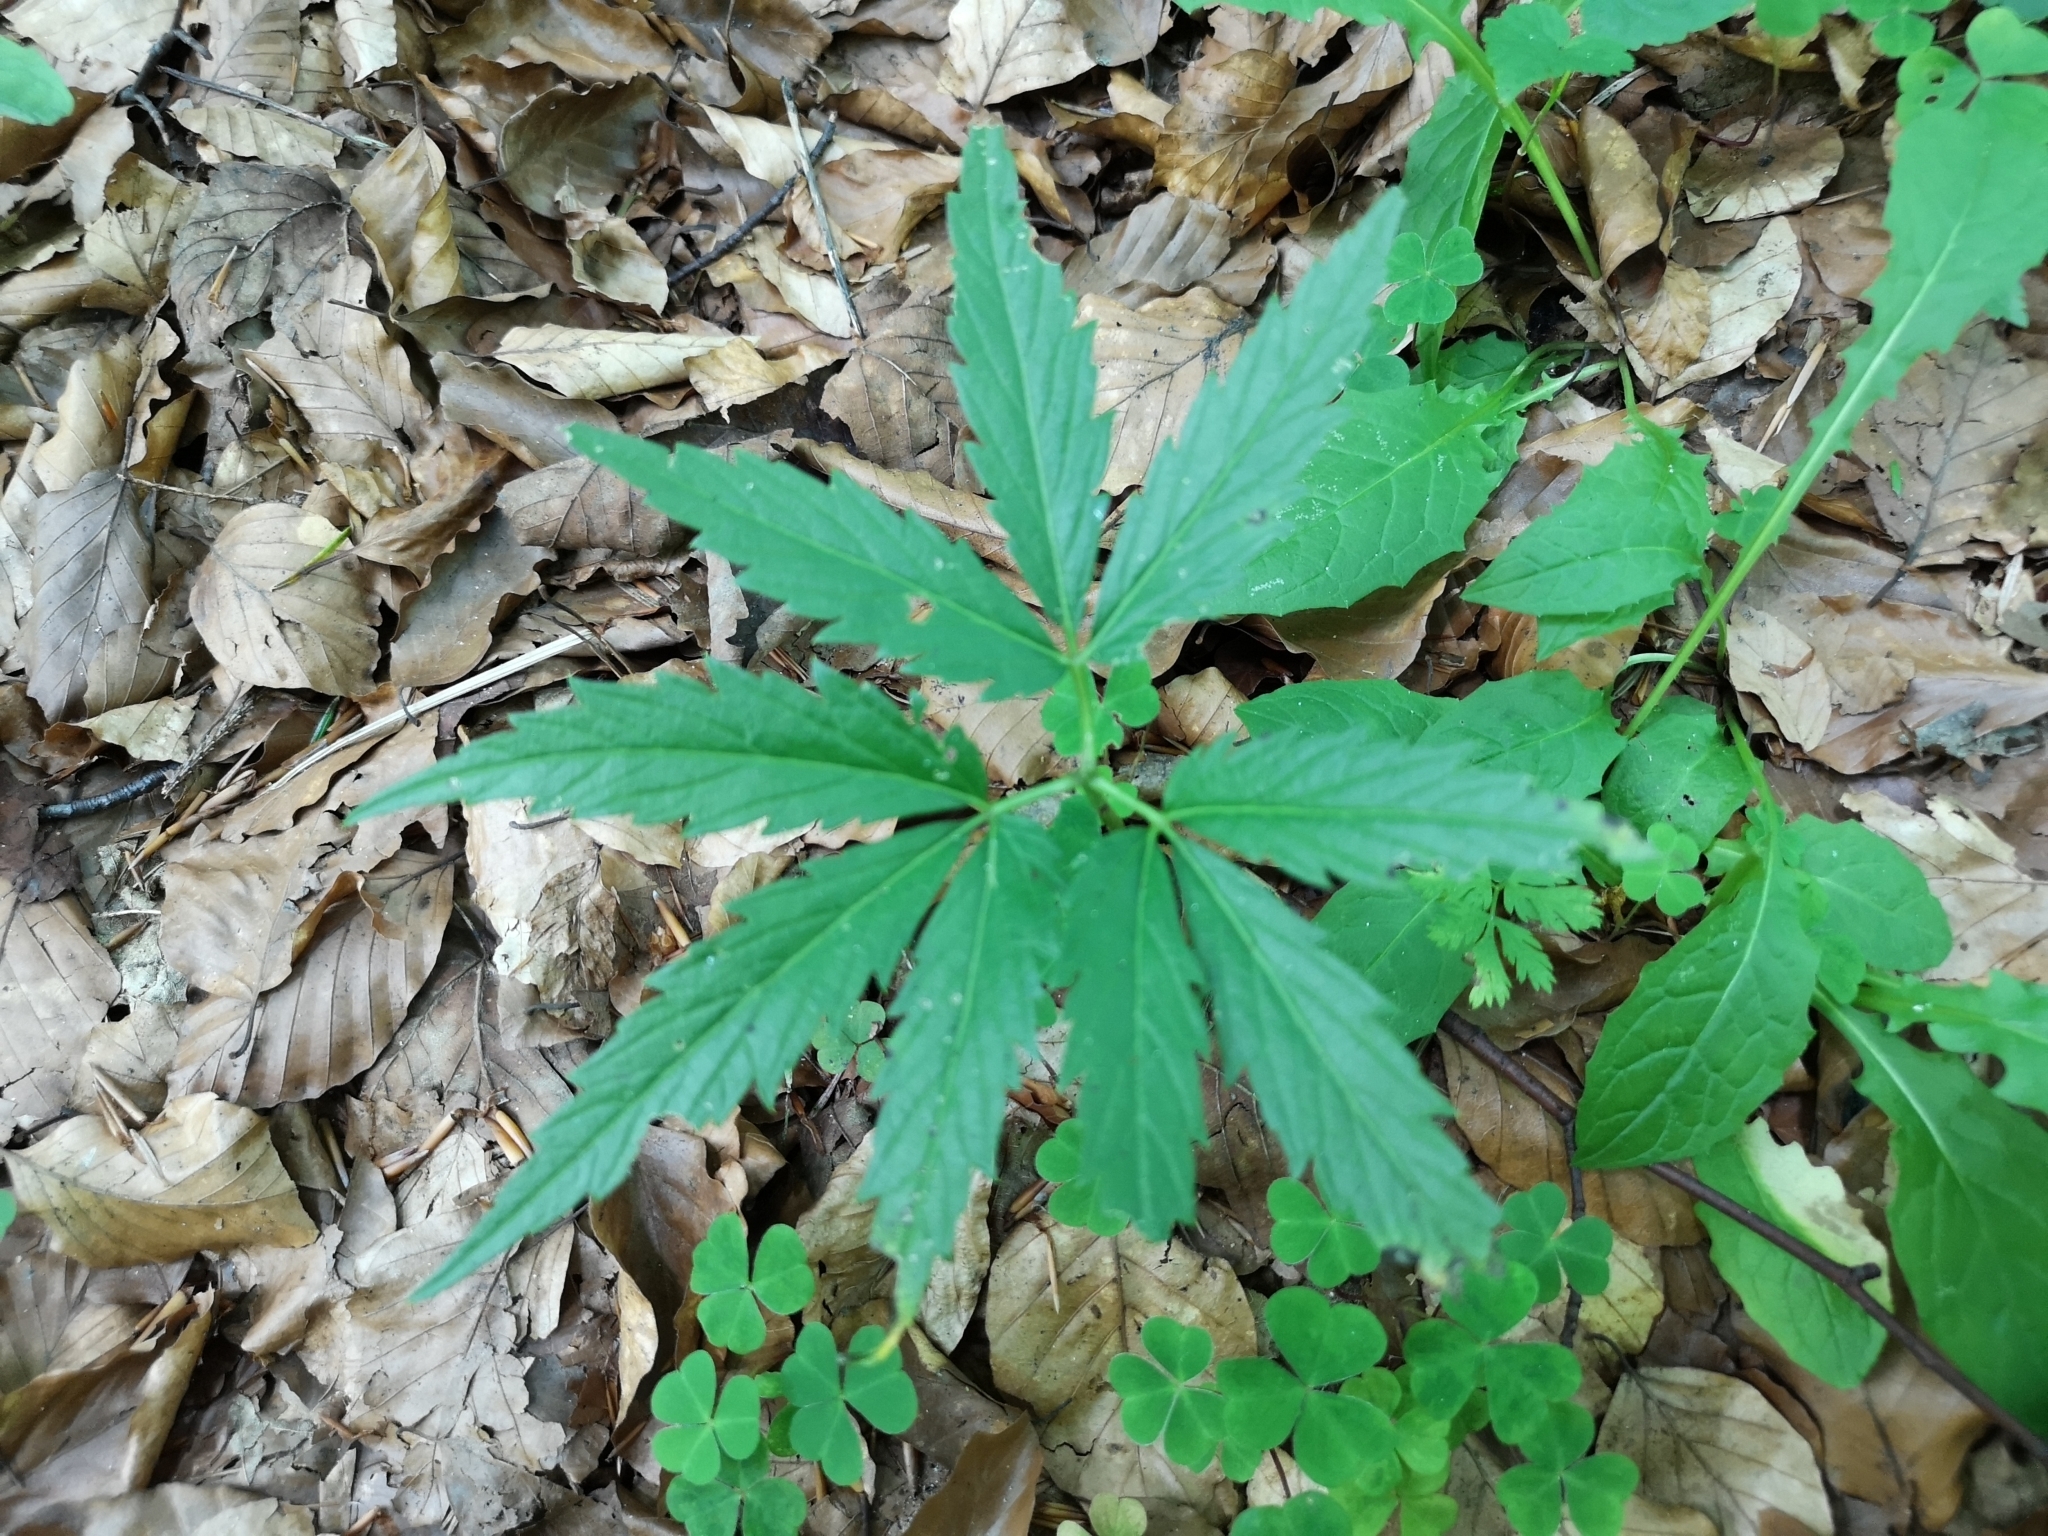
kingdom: Plantae
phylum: Tracheophyta
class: Magnoliopsida
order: Brassicales
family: Brassicaceae
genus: Cardamine
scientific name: Cardamine glanduligera
